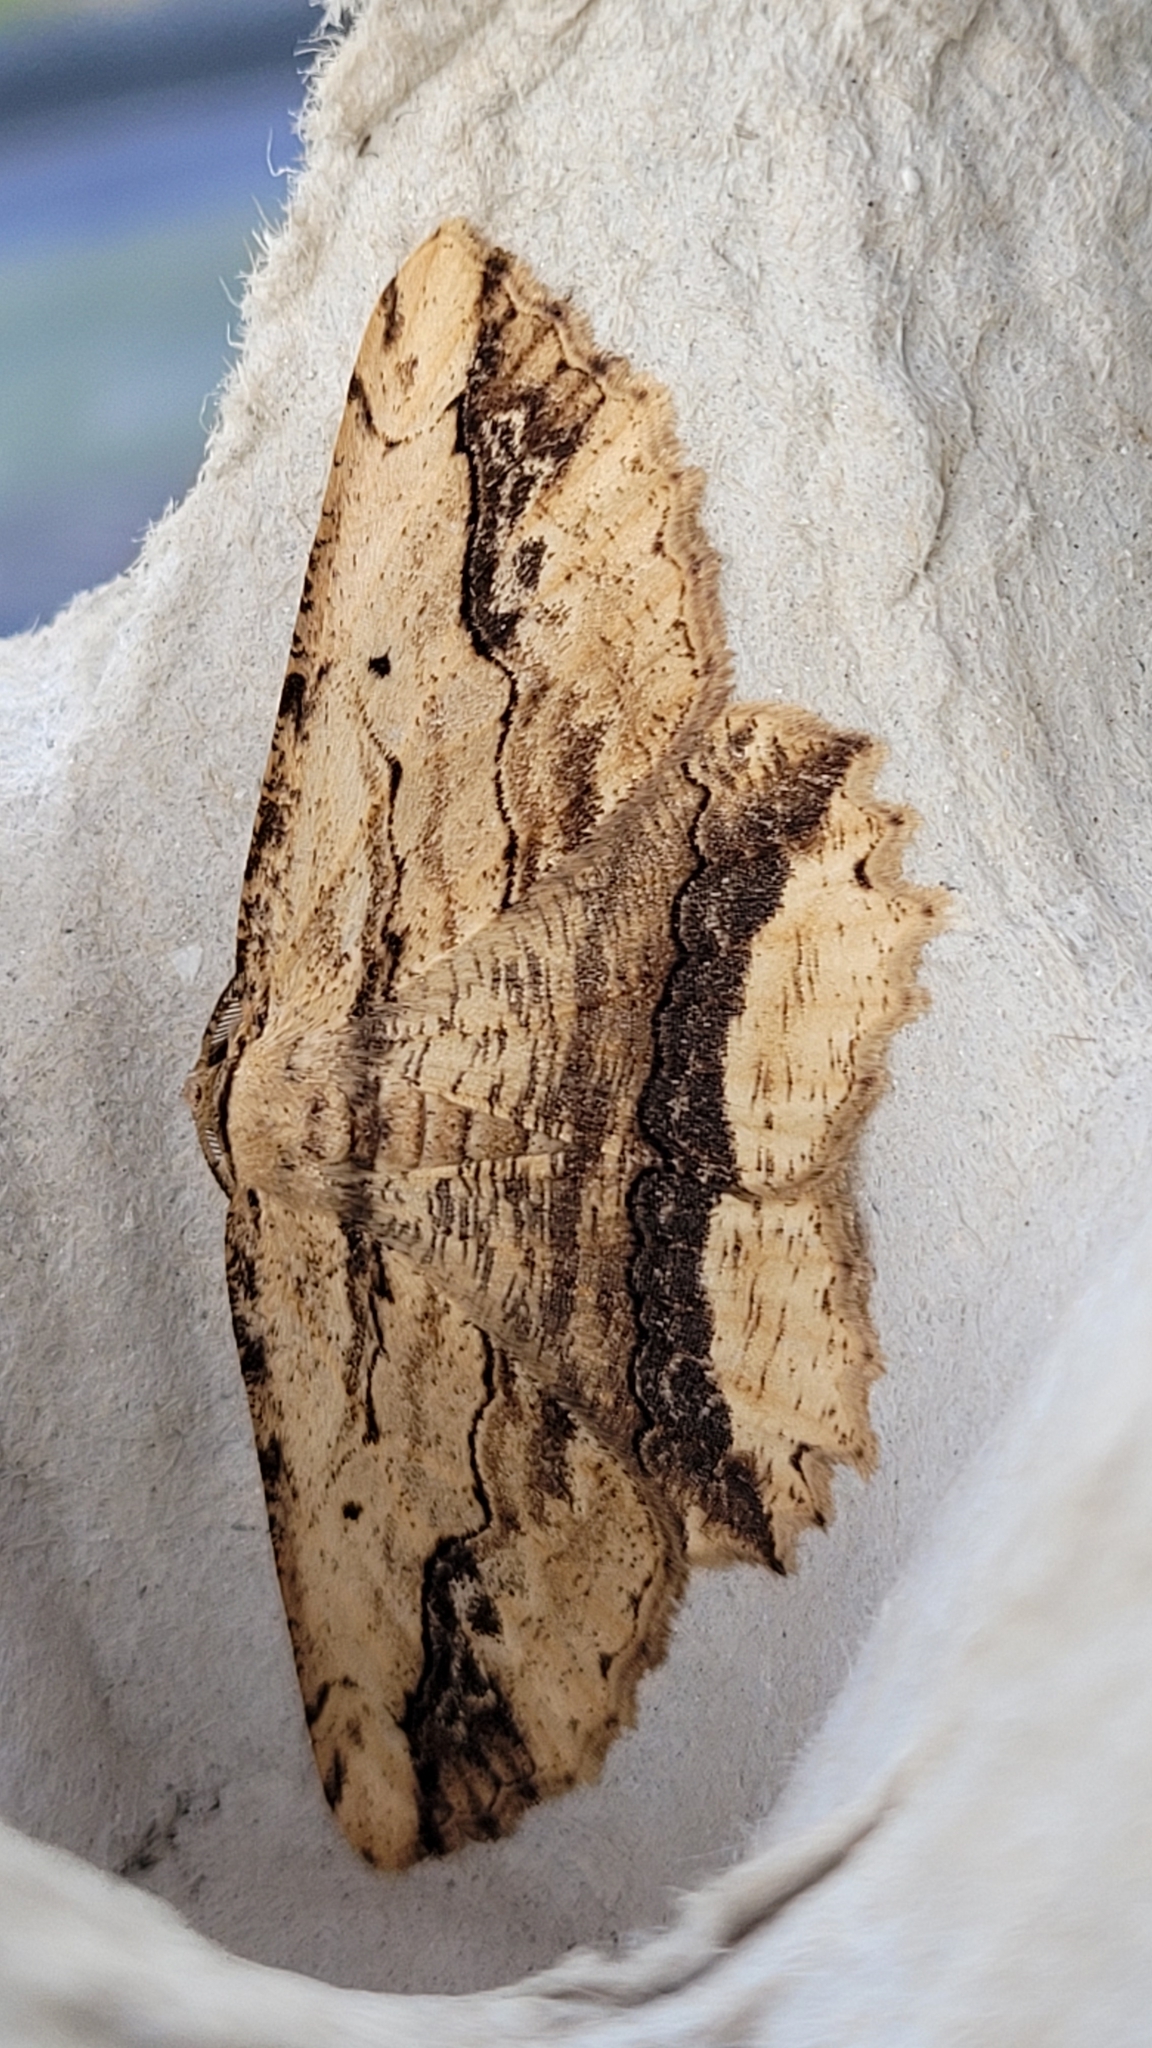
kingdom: Animalia
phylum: Arthropoda
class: Insecta
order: Lepidoptera
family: Geometridae
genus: Menophra
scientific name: Menophra abruptaria
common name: Waved umber
